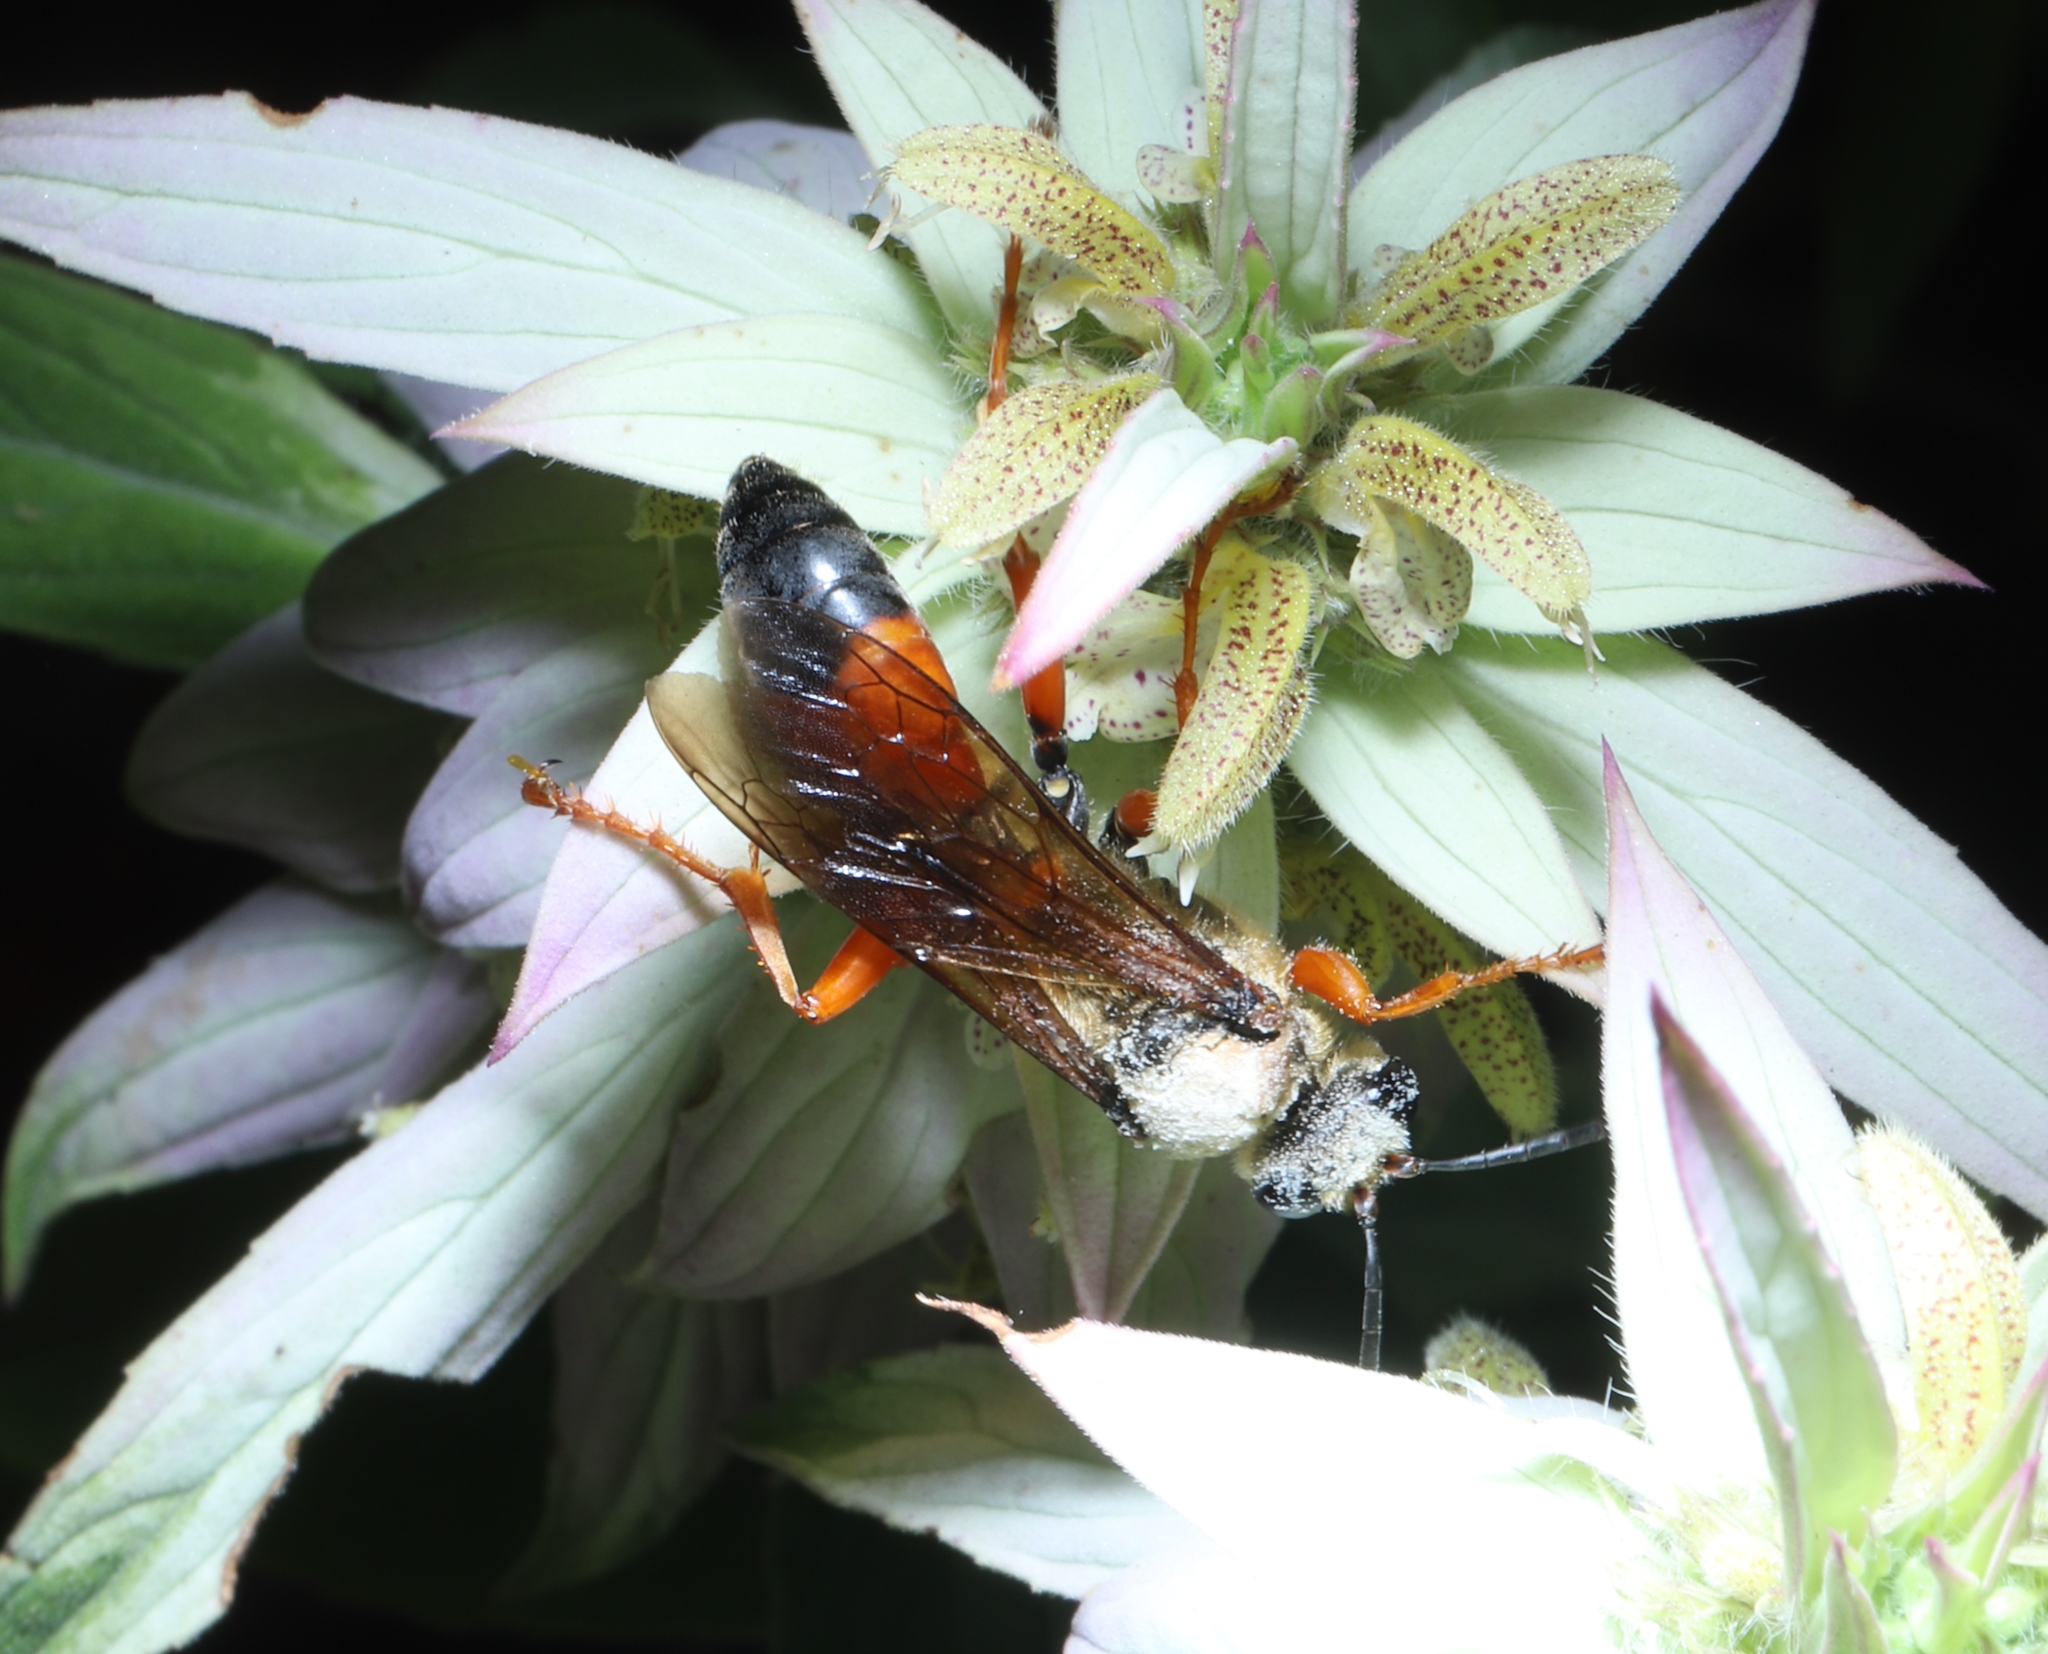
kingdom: Animalia
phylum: Arthropoda
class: Insecta
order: Hymenoptera
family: Sphecidae
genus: Sphex
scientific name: Sphex ichneumoneus
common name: Great golden digger wasp
